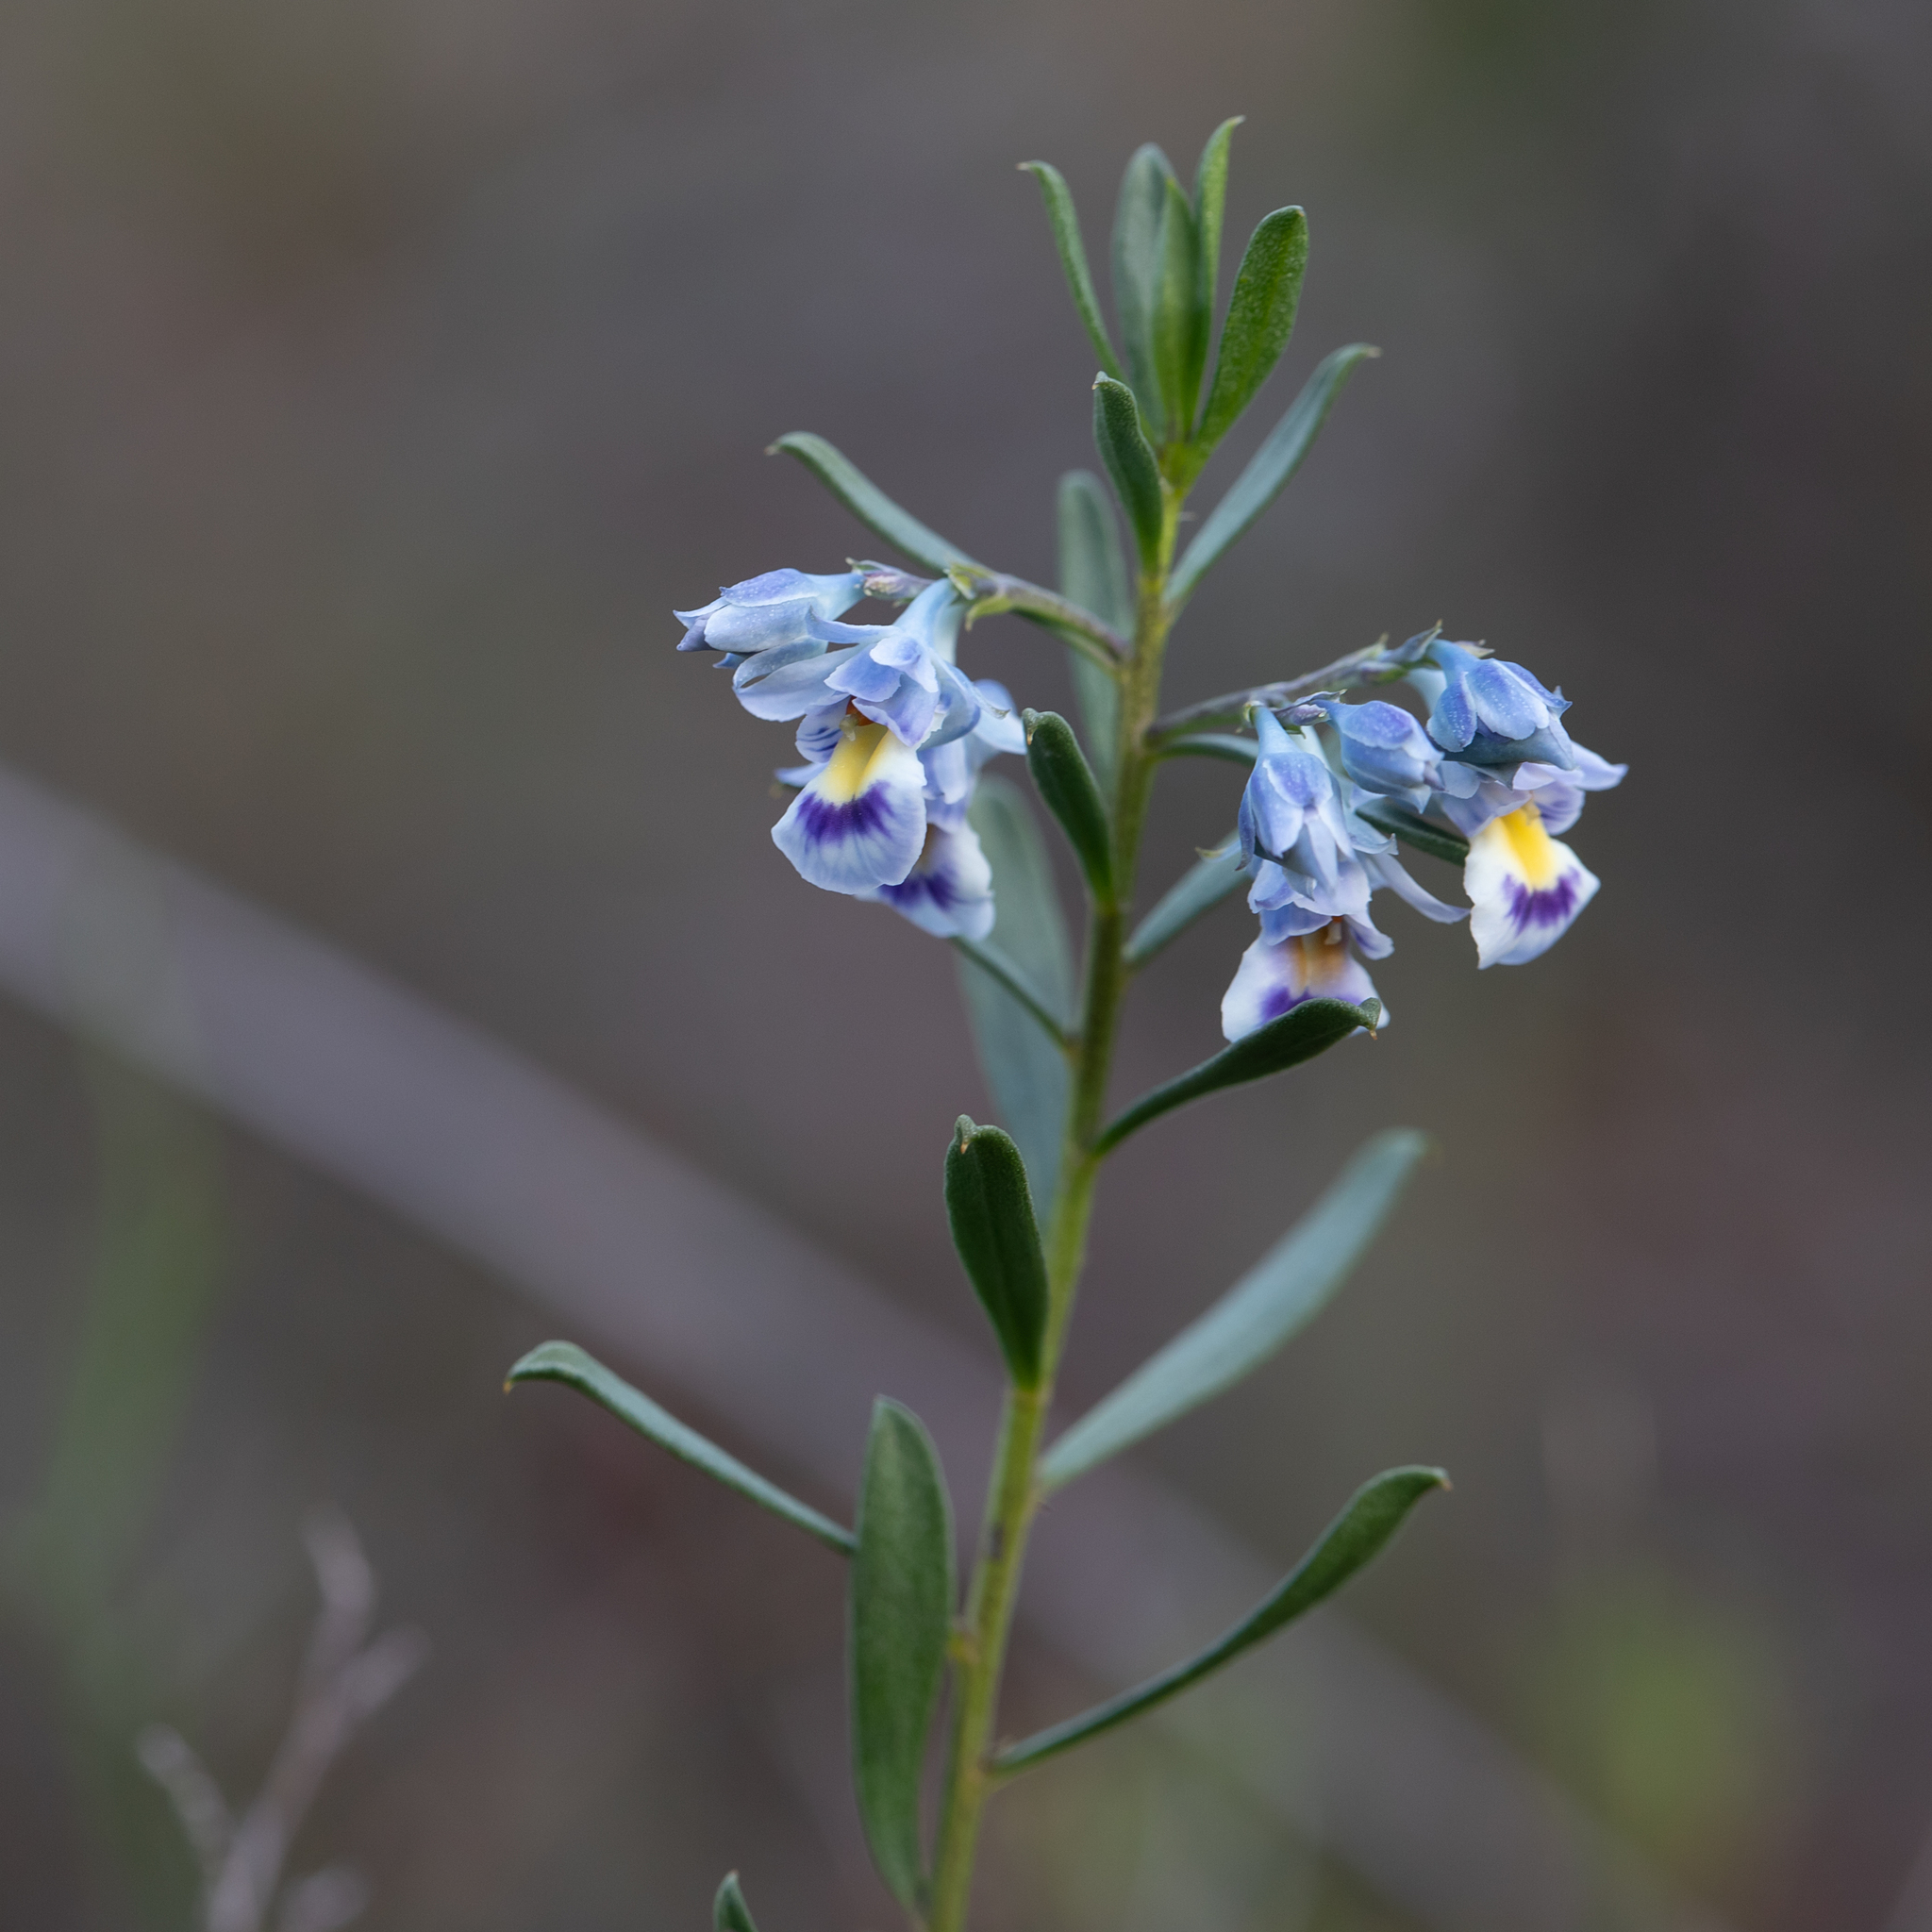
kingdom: Plantae
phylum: Tracheophyta
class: Magnoliopsida
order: Malpighiales
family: Violaceae
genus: Pigea
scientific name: Pigea floribunda
